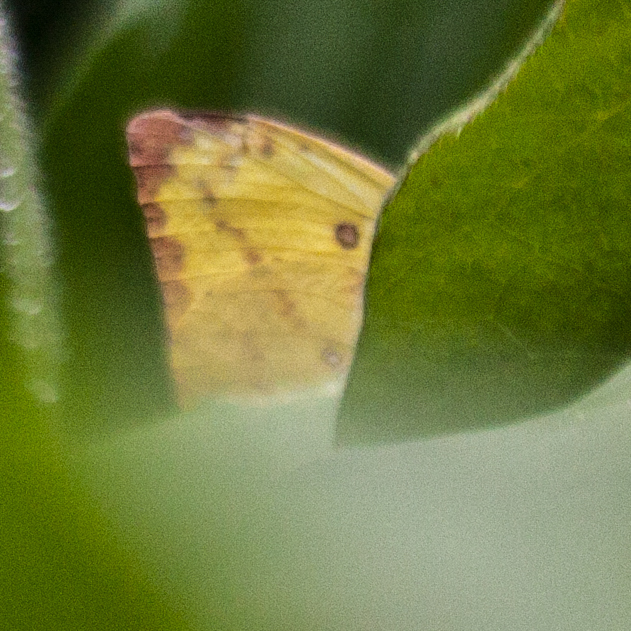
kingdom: Animalia
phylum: Arthropoda
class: Insecta
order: Lepidoptera
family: Pieridae
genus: Catopsilia
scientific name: Catopsilia pomona
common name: Common emigrant
